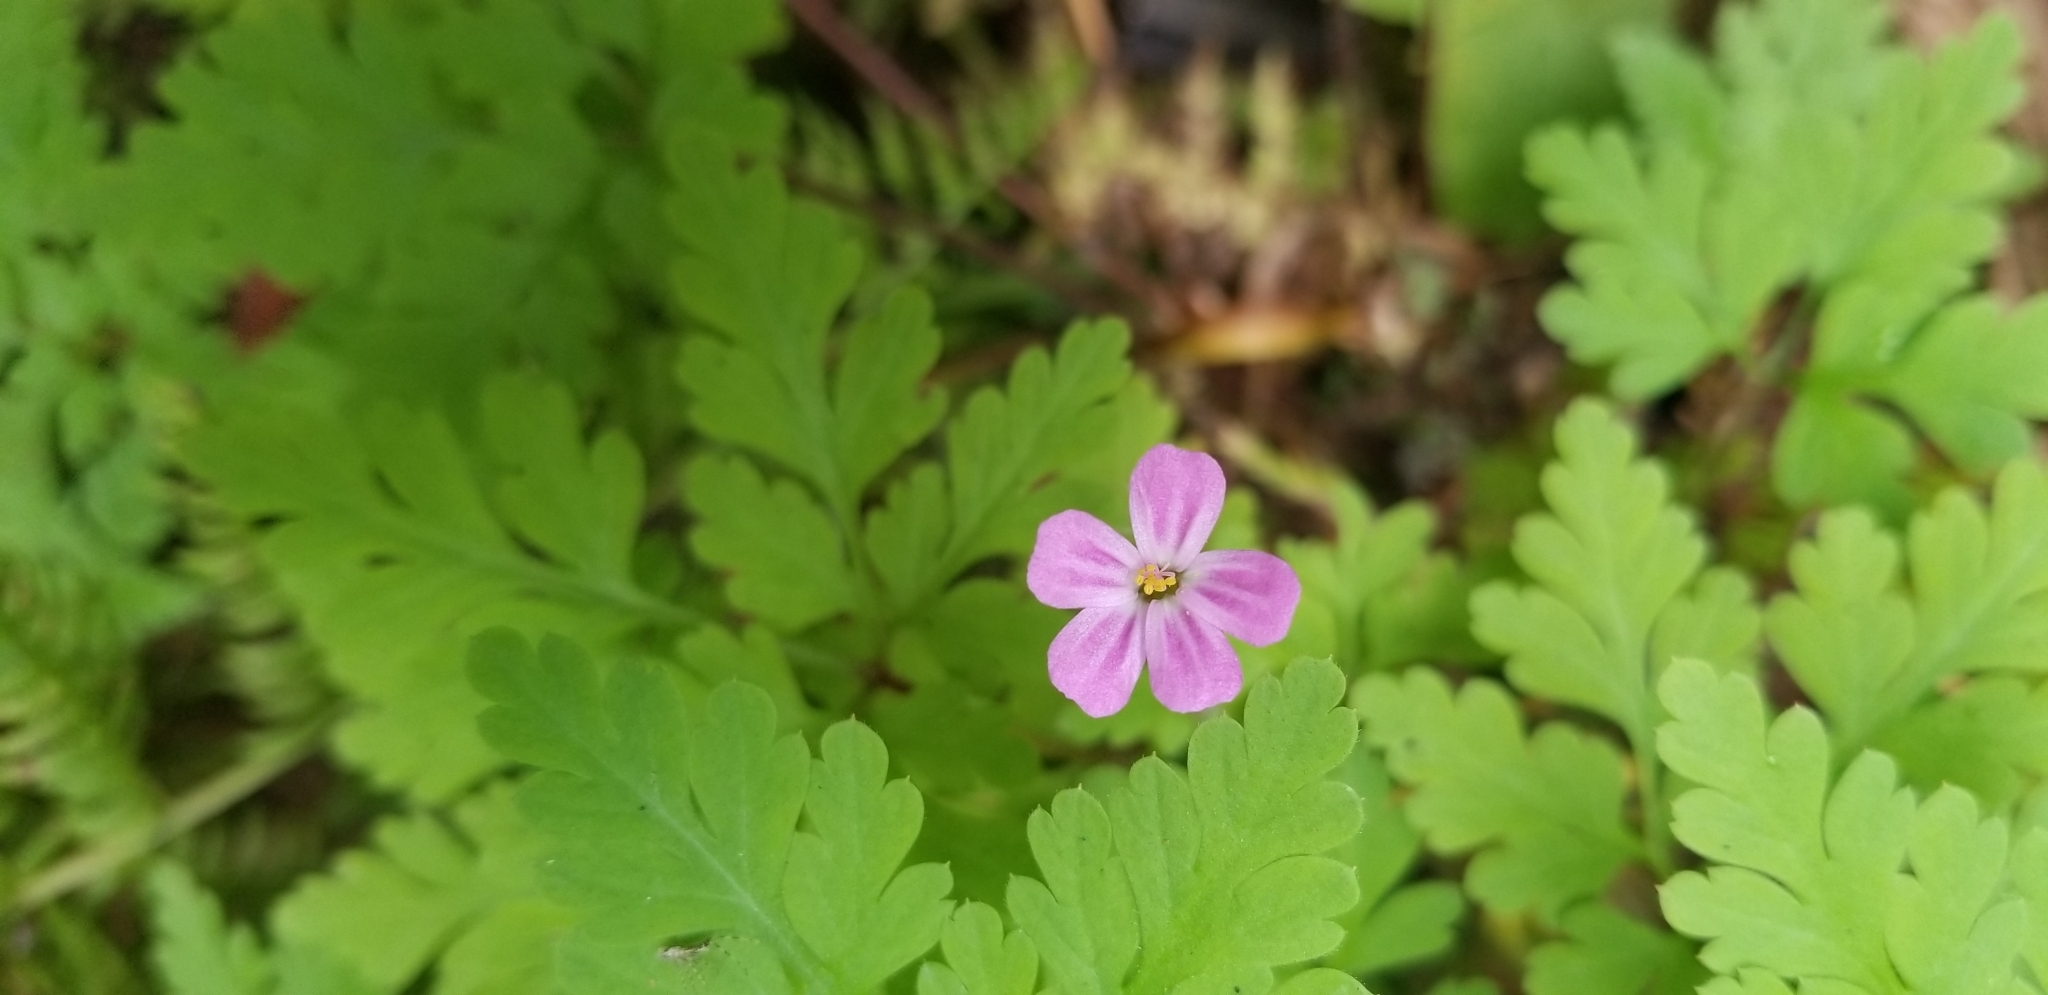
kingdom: Plantae
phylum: Tracheophyta
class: Magnoliopsida
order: Geraniales
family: Geraniaceae
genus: Geranium
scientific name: Geranium robertianum
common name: Herb-robert
